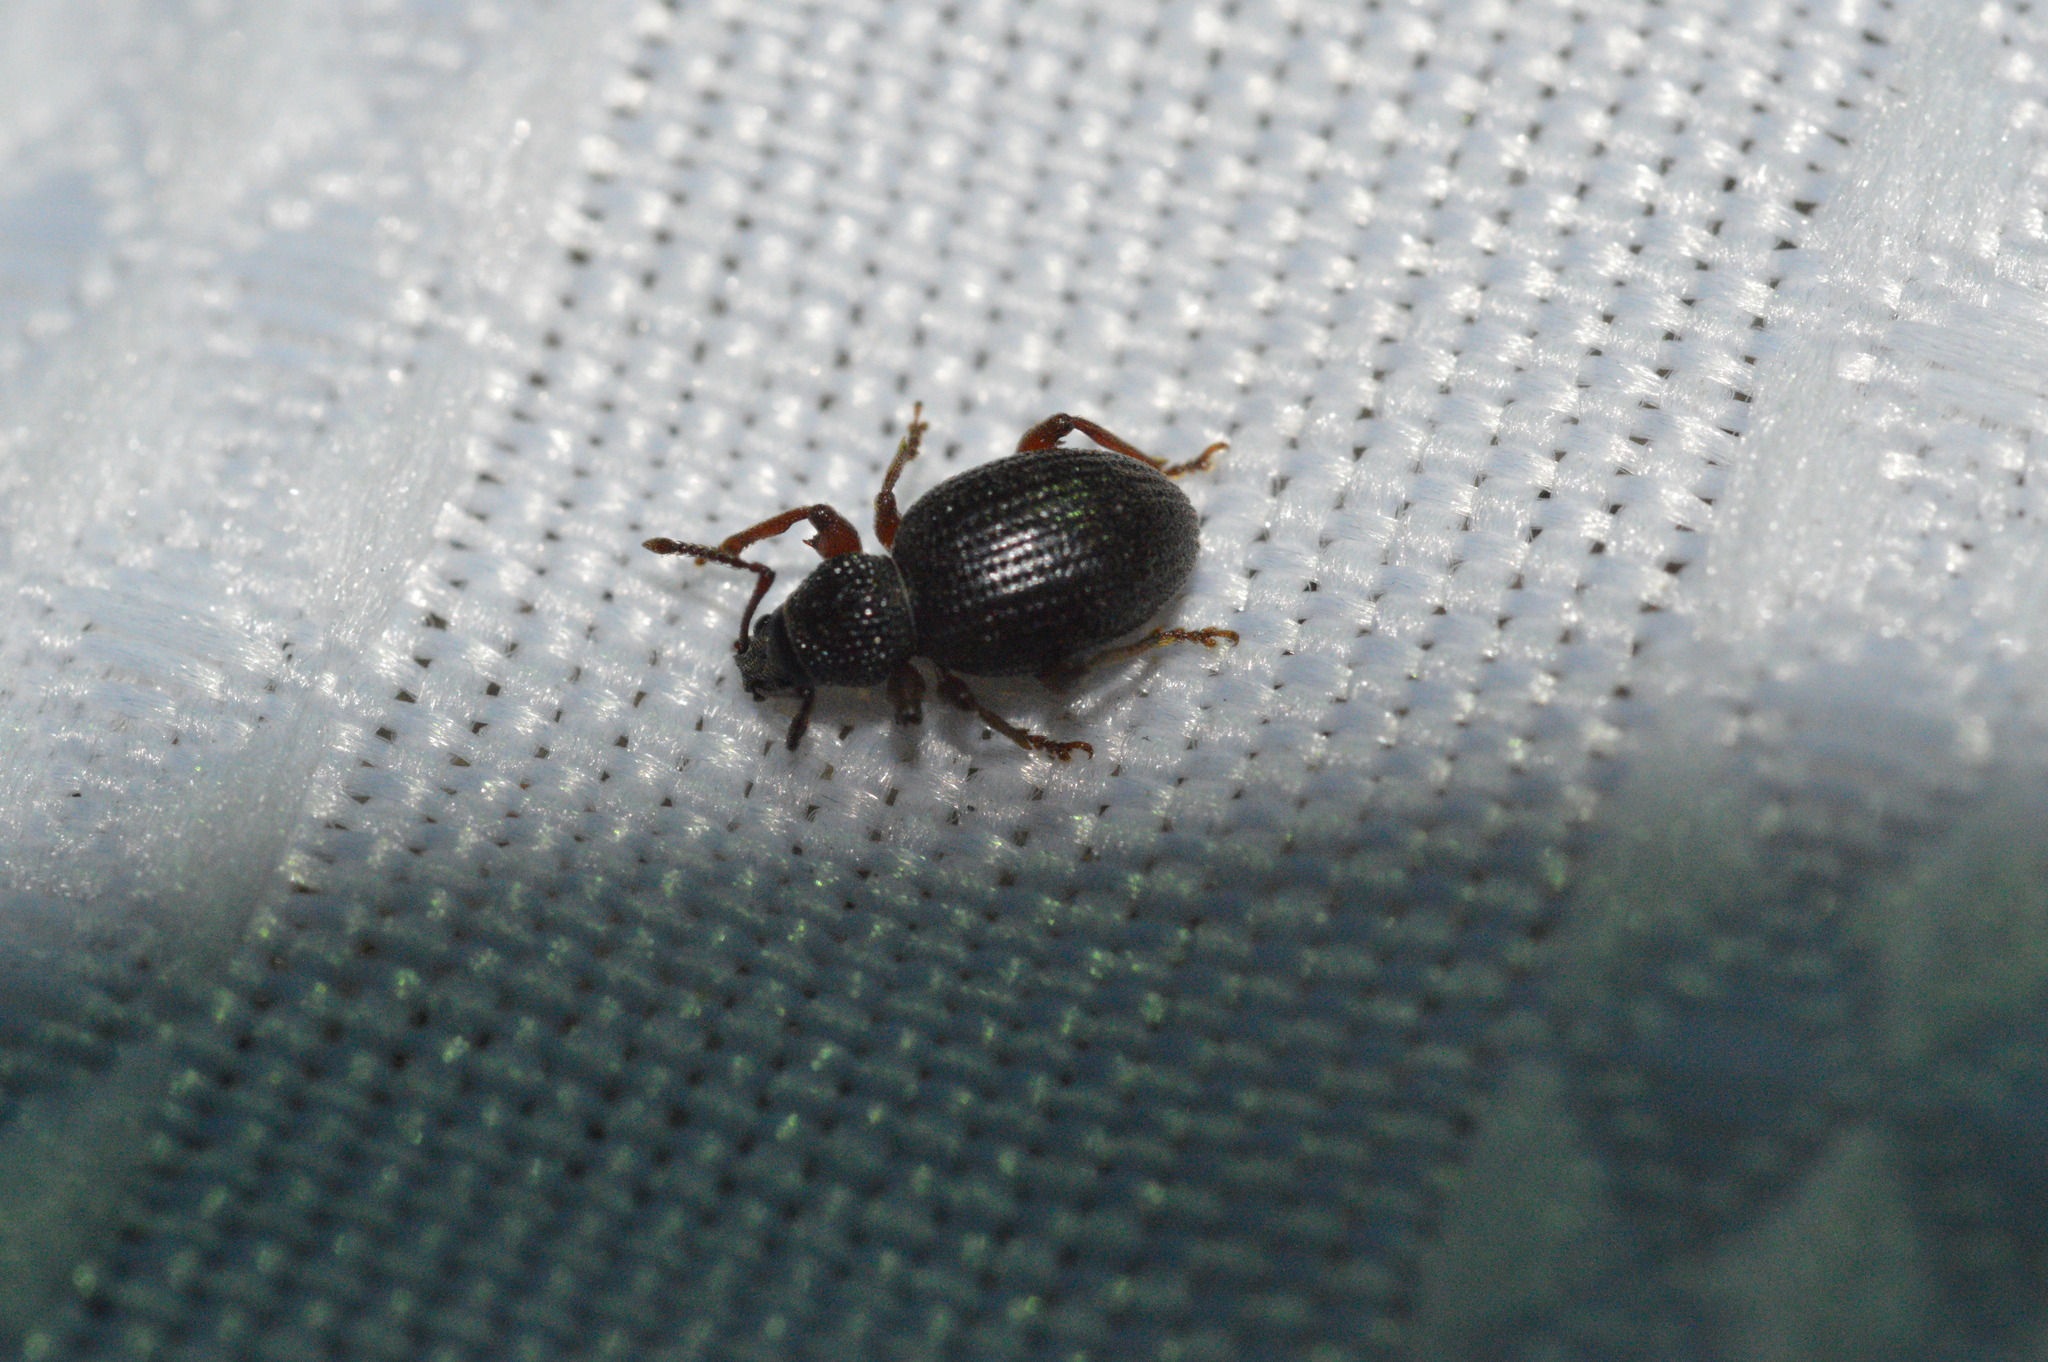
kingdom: Animalia
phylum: Arthropoda
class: Insecta
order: Coleoptera
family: Curculionidae
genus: Otiorhynchus
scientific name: Otiorhynchus ovatus
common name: Strawberry root weevil
